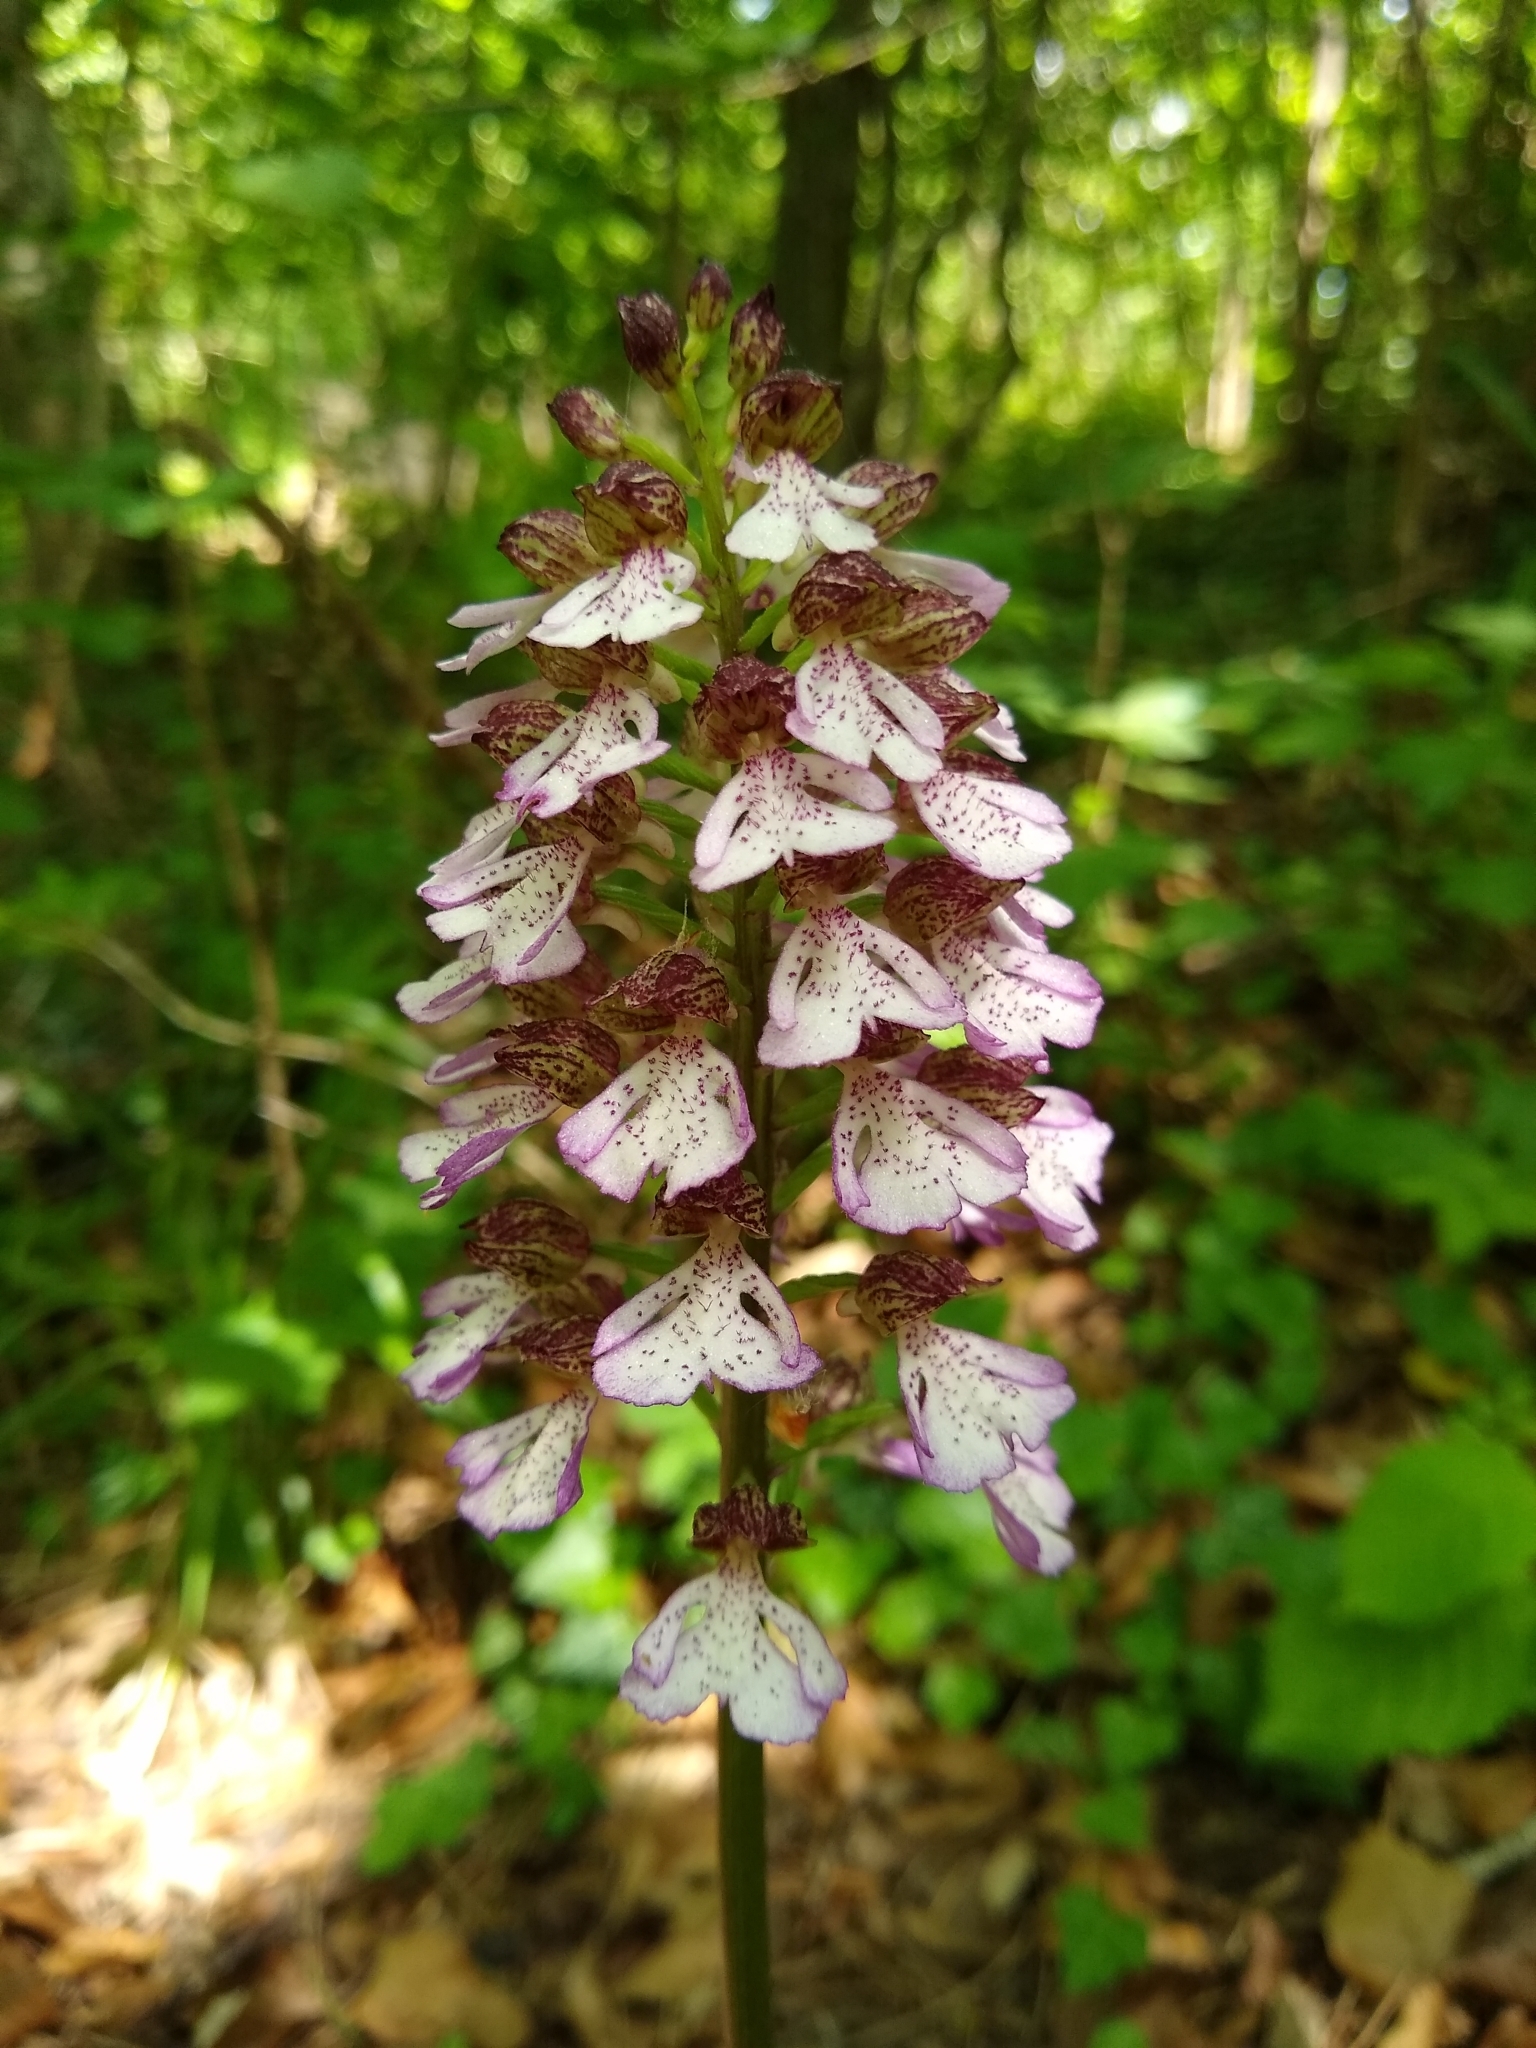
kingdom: Plantae
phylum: Tracheophyta
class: Liliopsida
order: Asparagales
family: Orchidaceae
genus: Orchis
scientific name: Orchis purpurea
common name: Lady orchid
